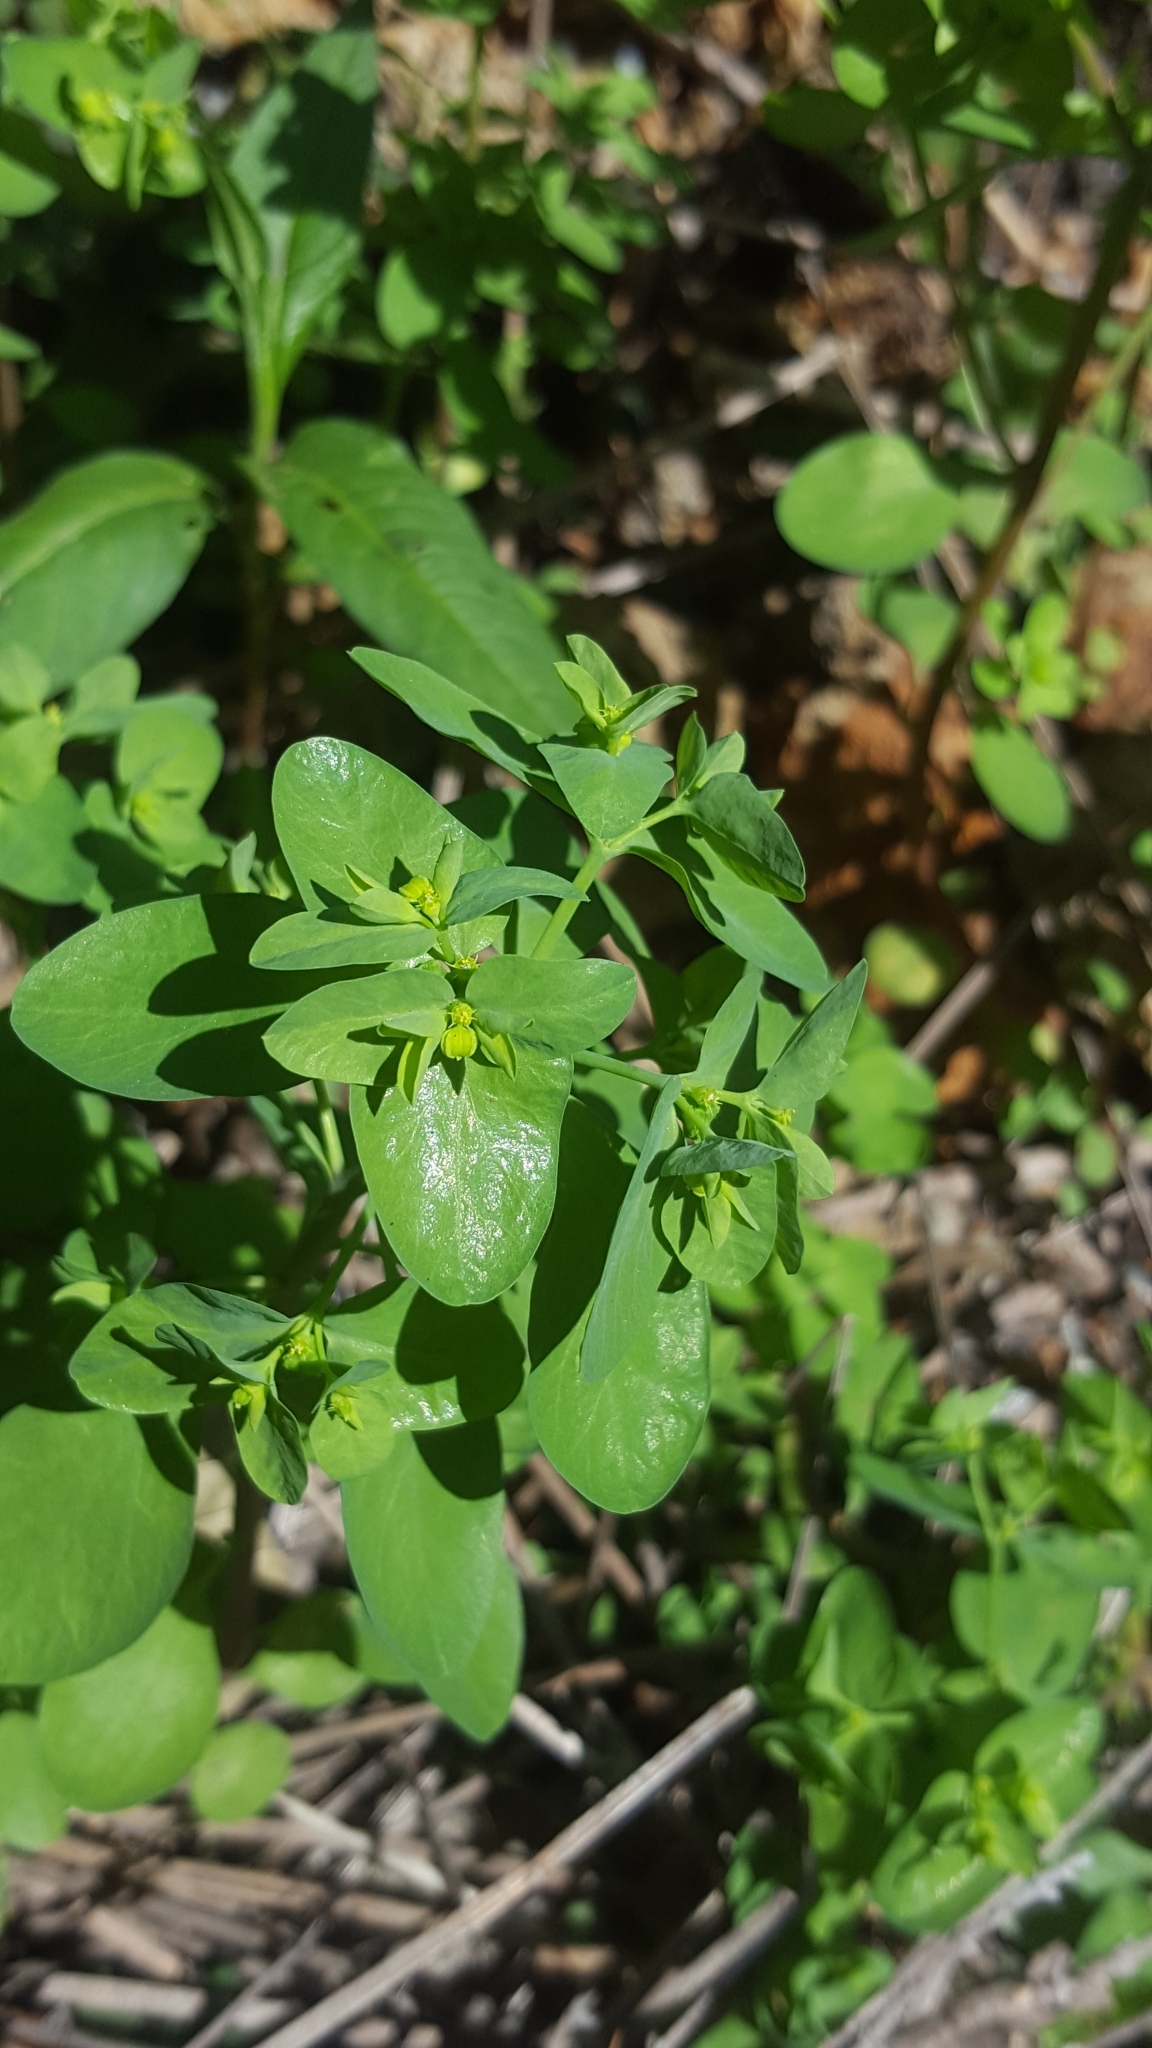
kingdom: Plantae
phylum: Tracheophyta
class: Magnoliopsida
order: Malpighiales
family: Euphorbiaceae
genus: Euphorbia
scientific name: Euphorbia peplus
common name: Petty spurge
